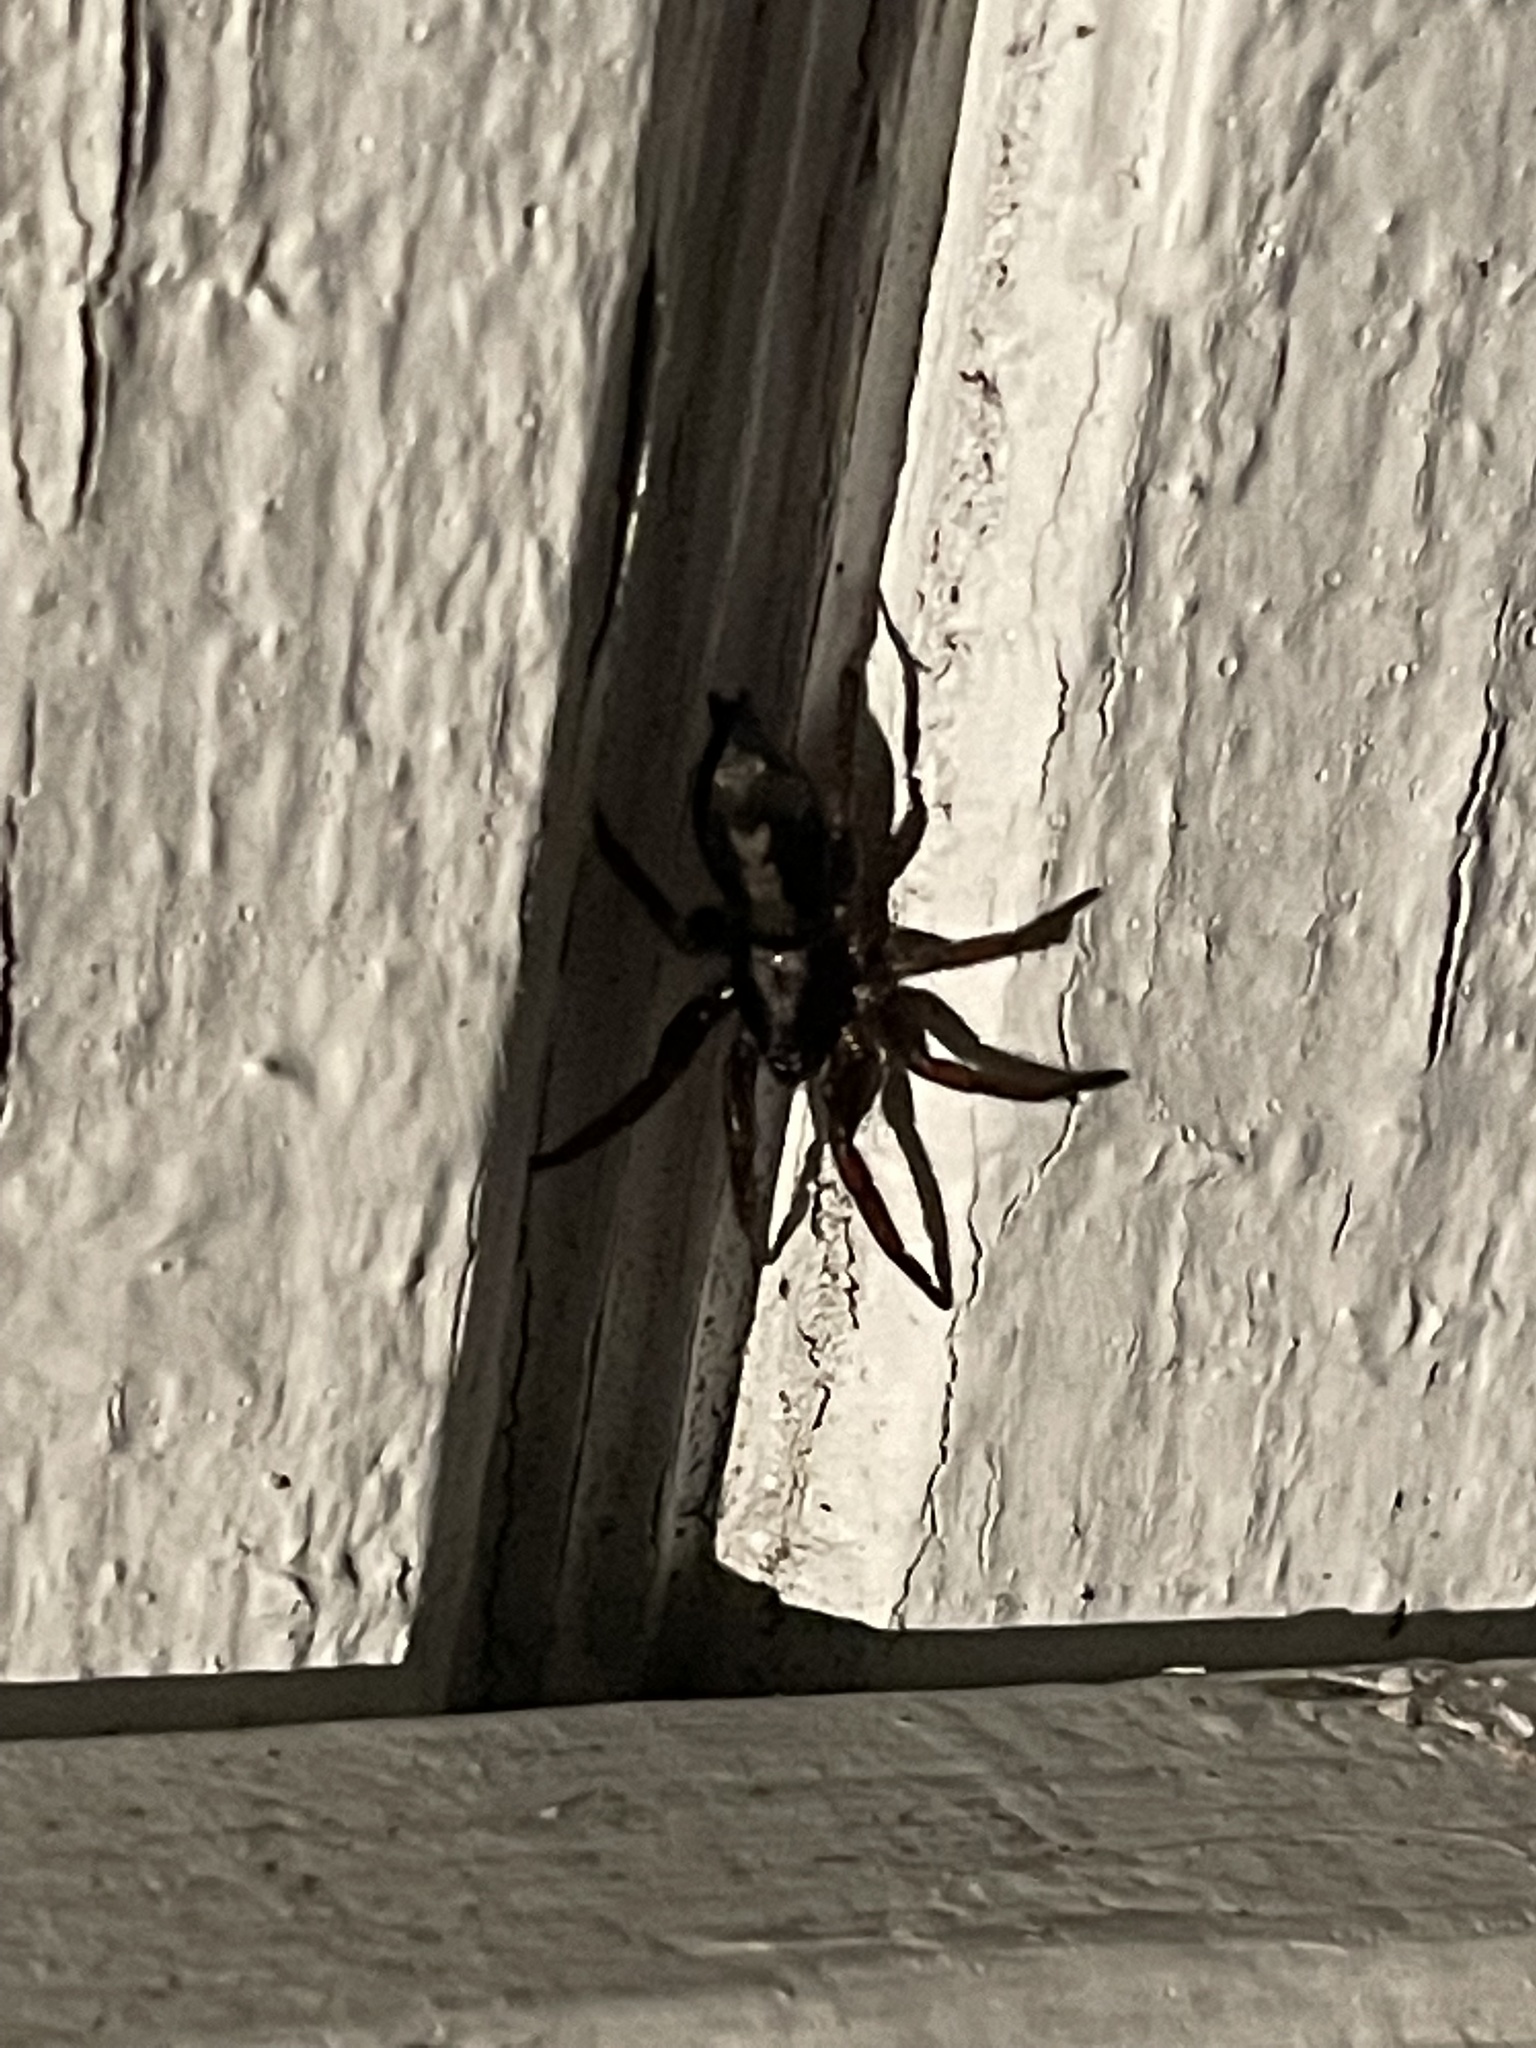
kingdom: Animalia
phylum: Arthropoda
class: Arachnida
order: Araneae
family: Gnaphosidae
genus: Herpyllus
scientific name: Herpyllus ecclesiasticus
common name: Eastern parson spider
